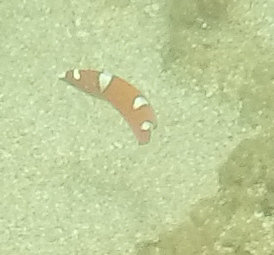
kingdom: Animalia
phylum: Chordata
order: Perciformes
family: Labridae
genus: Coris
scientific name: Coris gaimard
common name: Yellowtail coris
